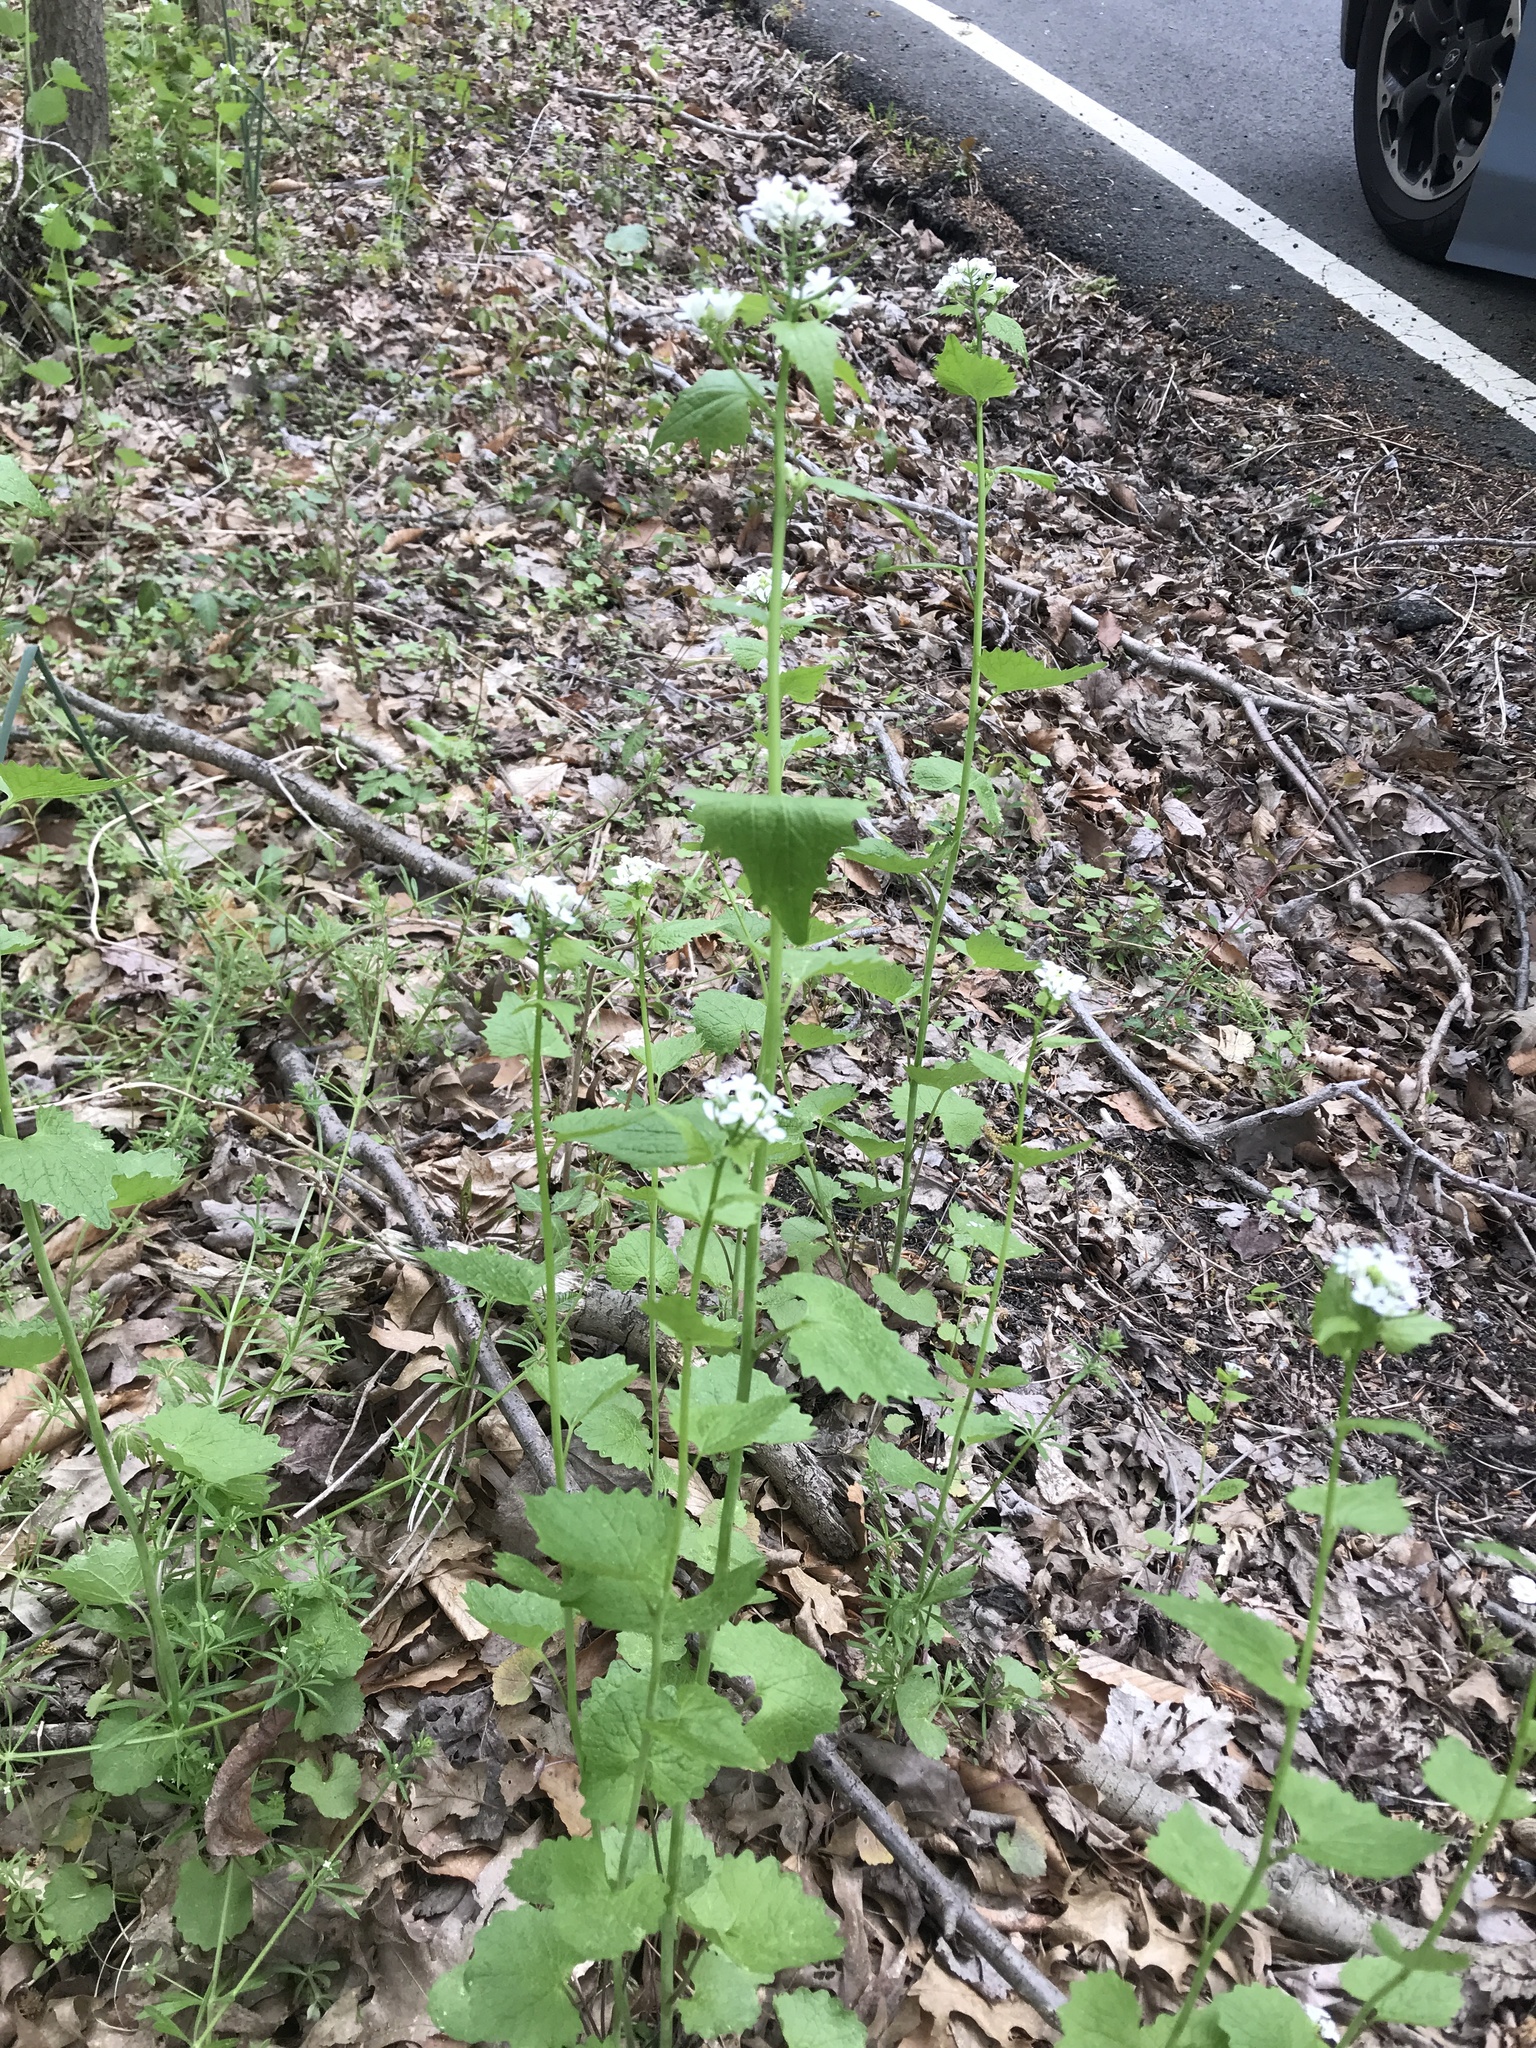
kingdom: Plantae
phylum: Tracheophyta
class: Magnoliopsida
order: Brassicales
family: Brassicaceae
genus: Alliaria
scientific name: Alliaria petiolata
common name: Garlic mustard
